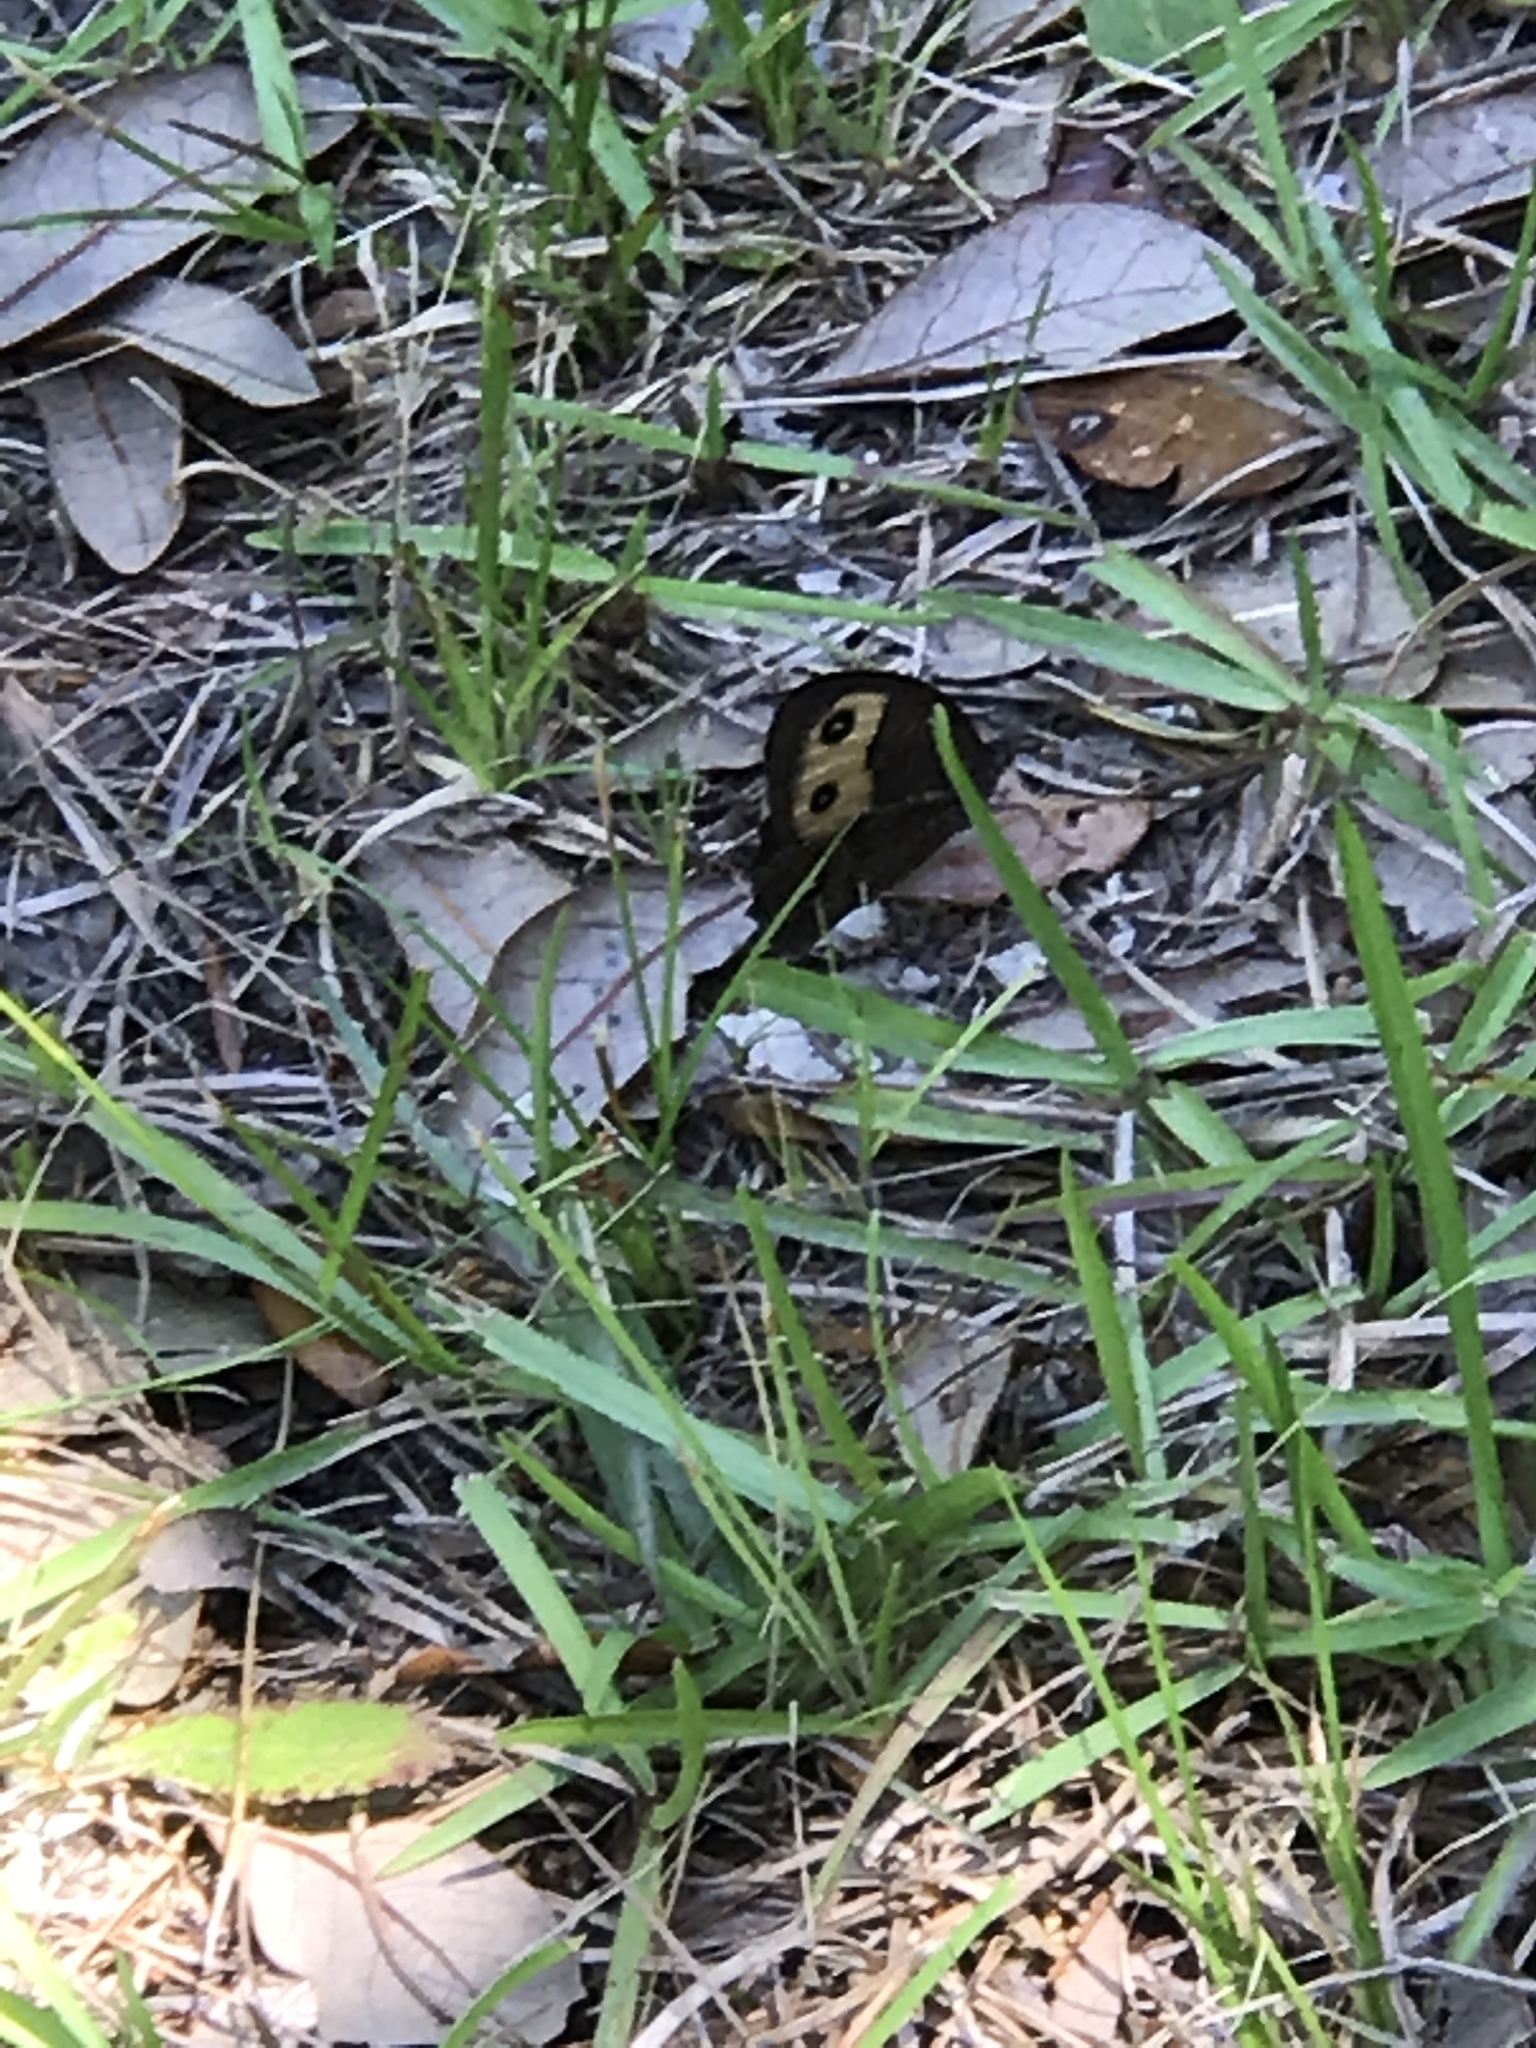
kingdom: Animalia
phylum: Arthropoda
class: Insecta
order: Lepidoptera
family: Nymphalidae
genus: Cercyonis
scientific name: Cercyonis pegala
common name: Common wood-nymph
